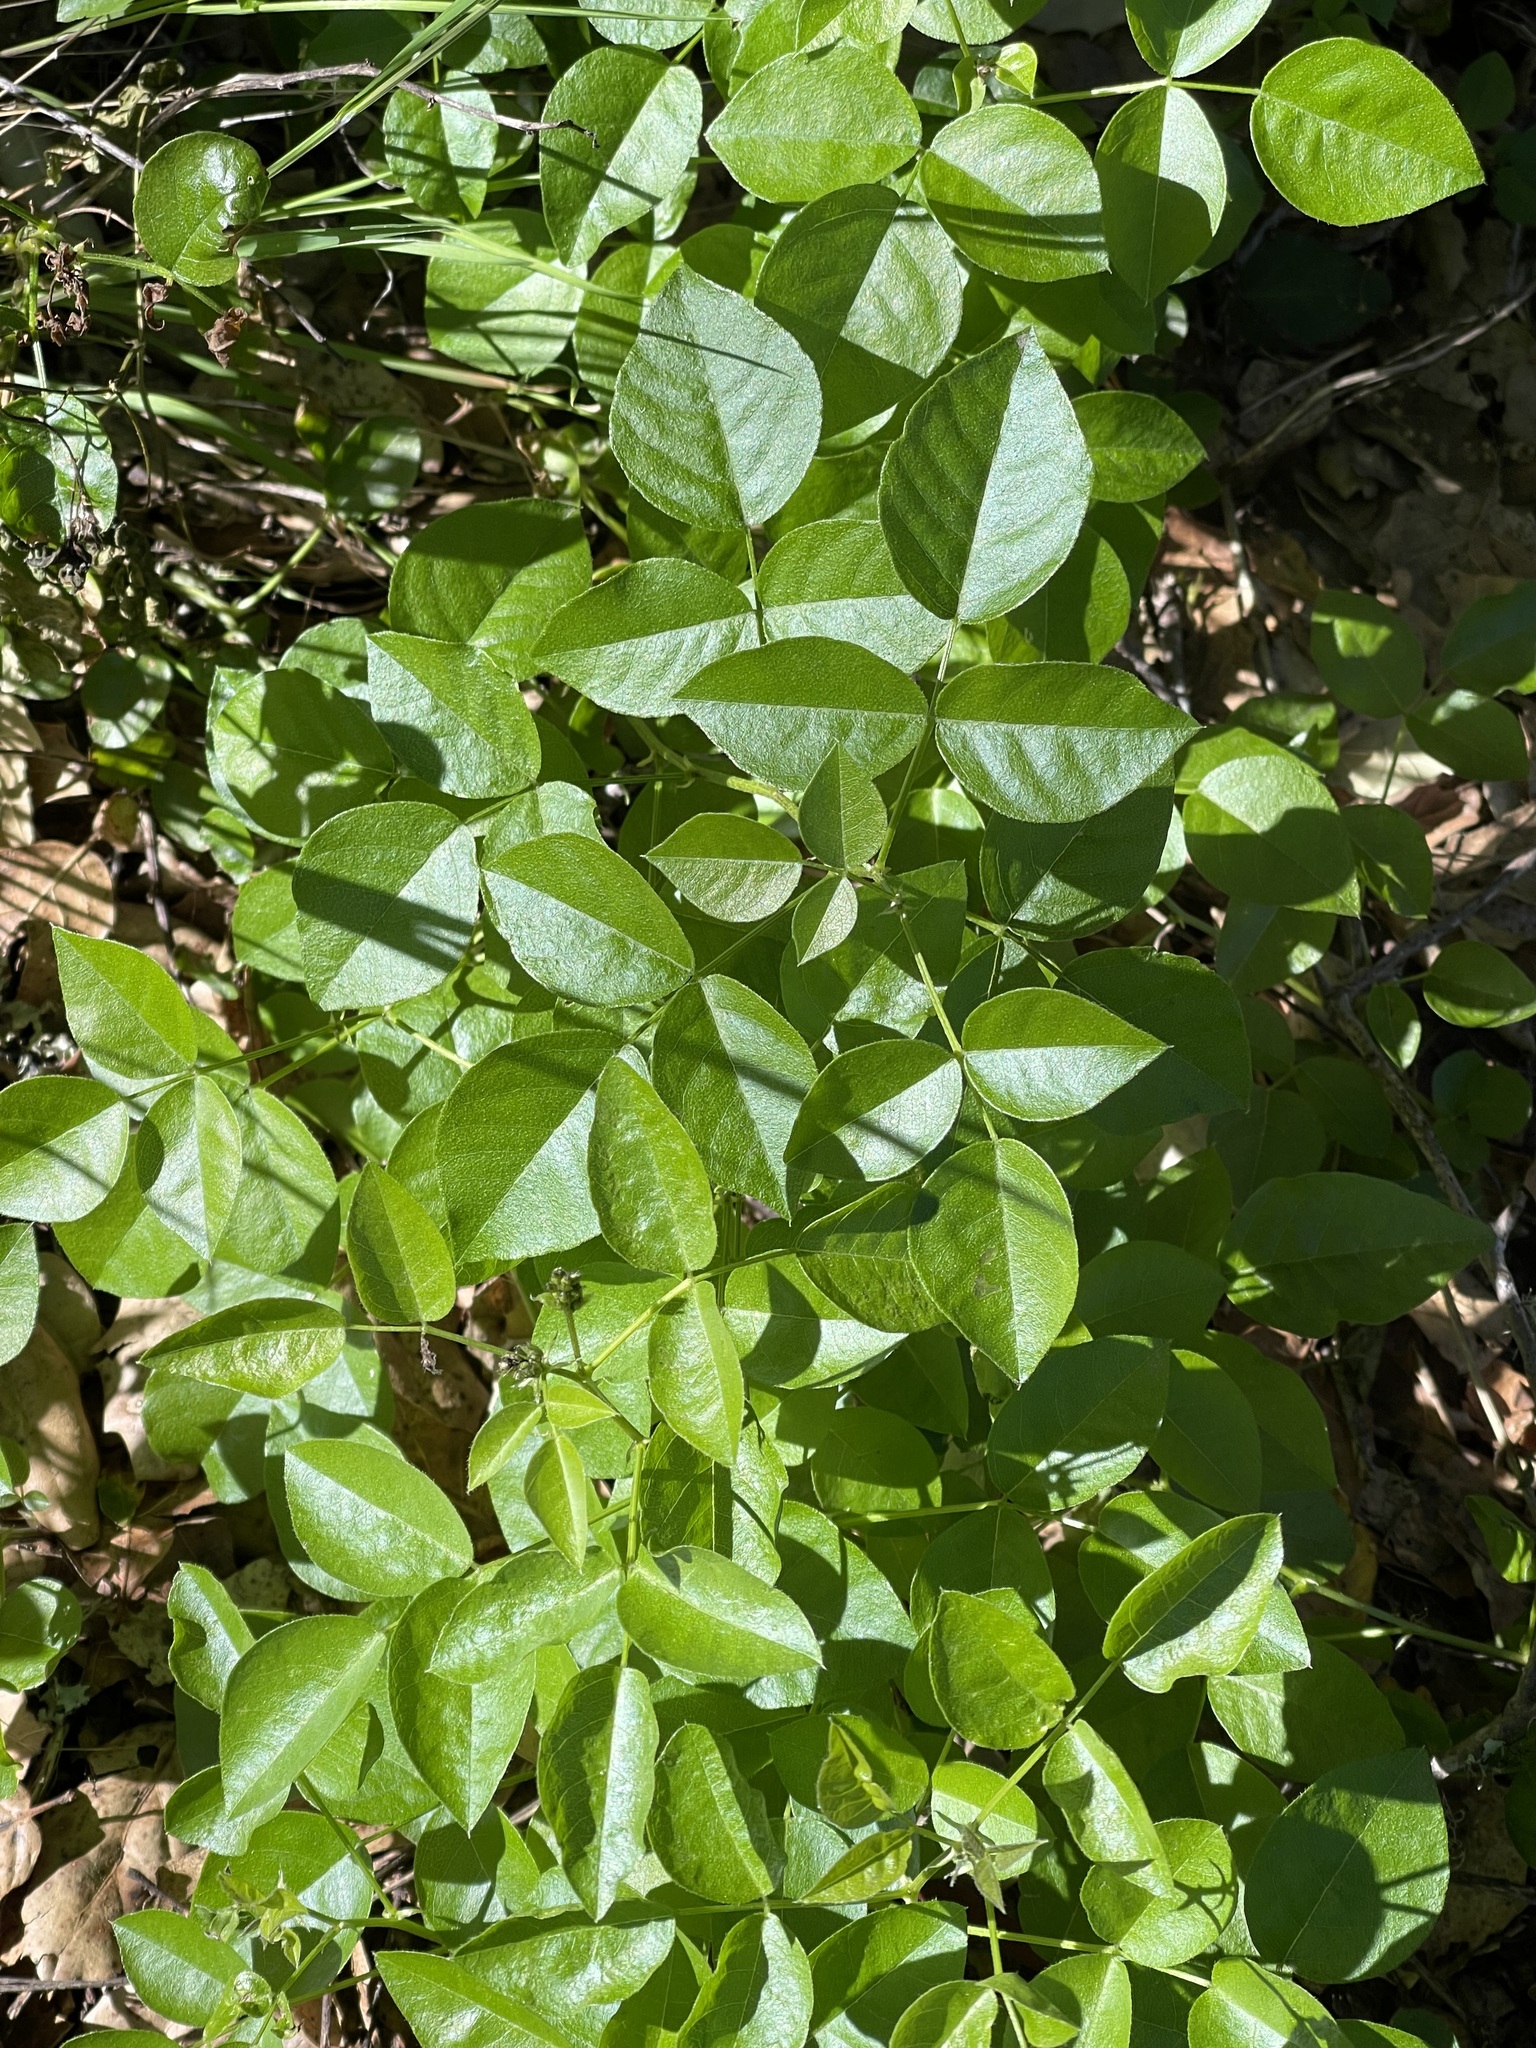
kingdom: Plantae
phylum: Tracheophyta
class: Magnoliopsida
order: Fabales
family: Fabaceae
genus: Rupertia
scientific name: Rupertia physodes
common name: California-tea
